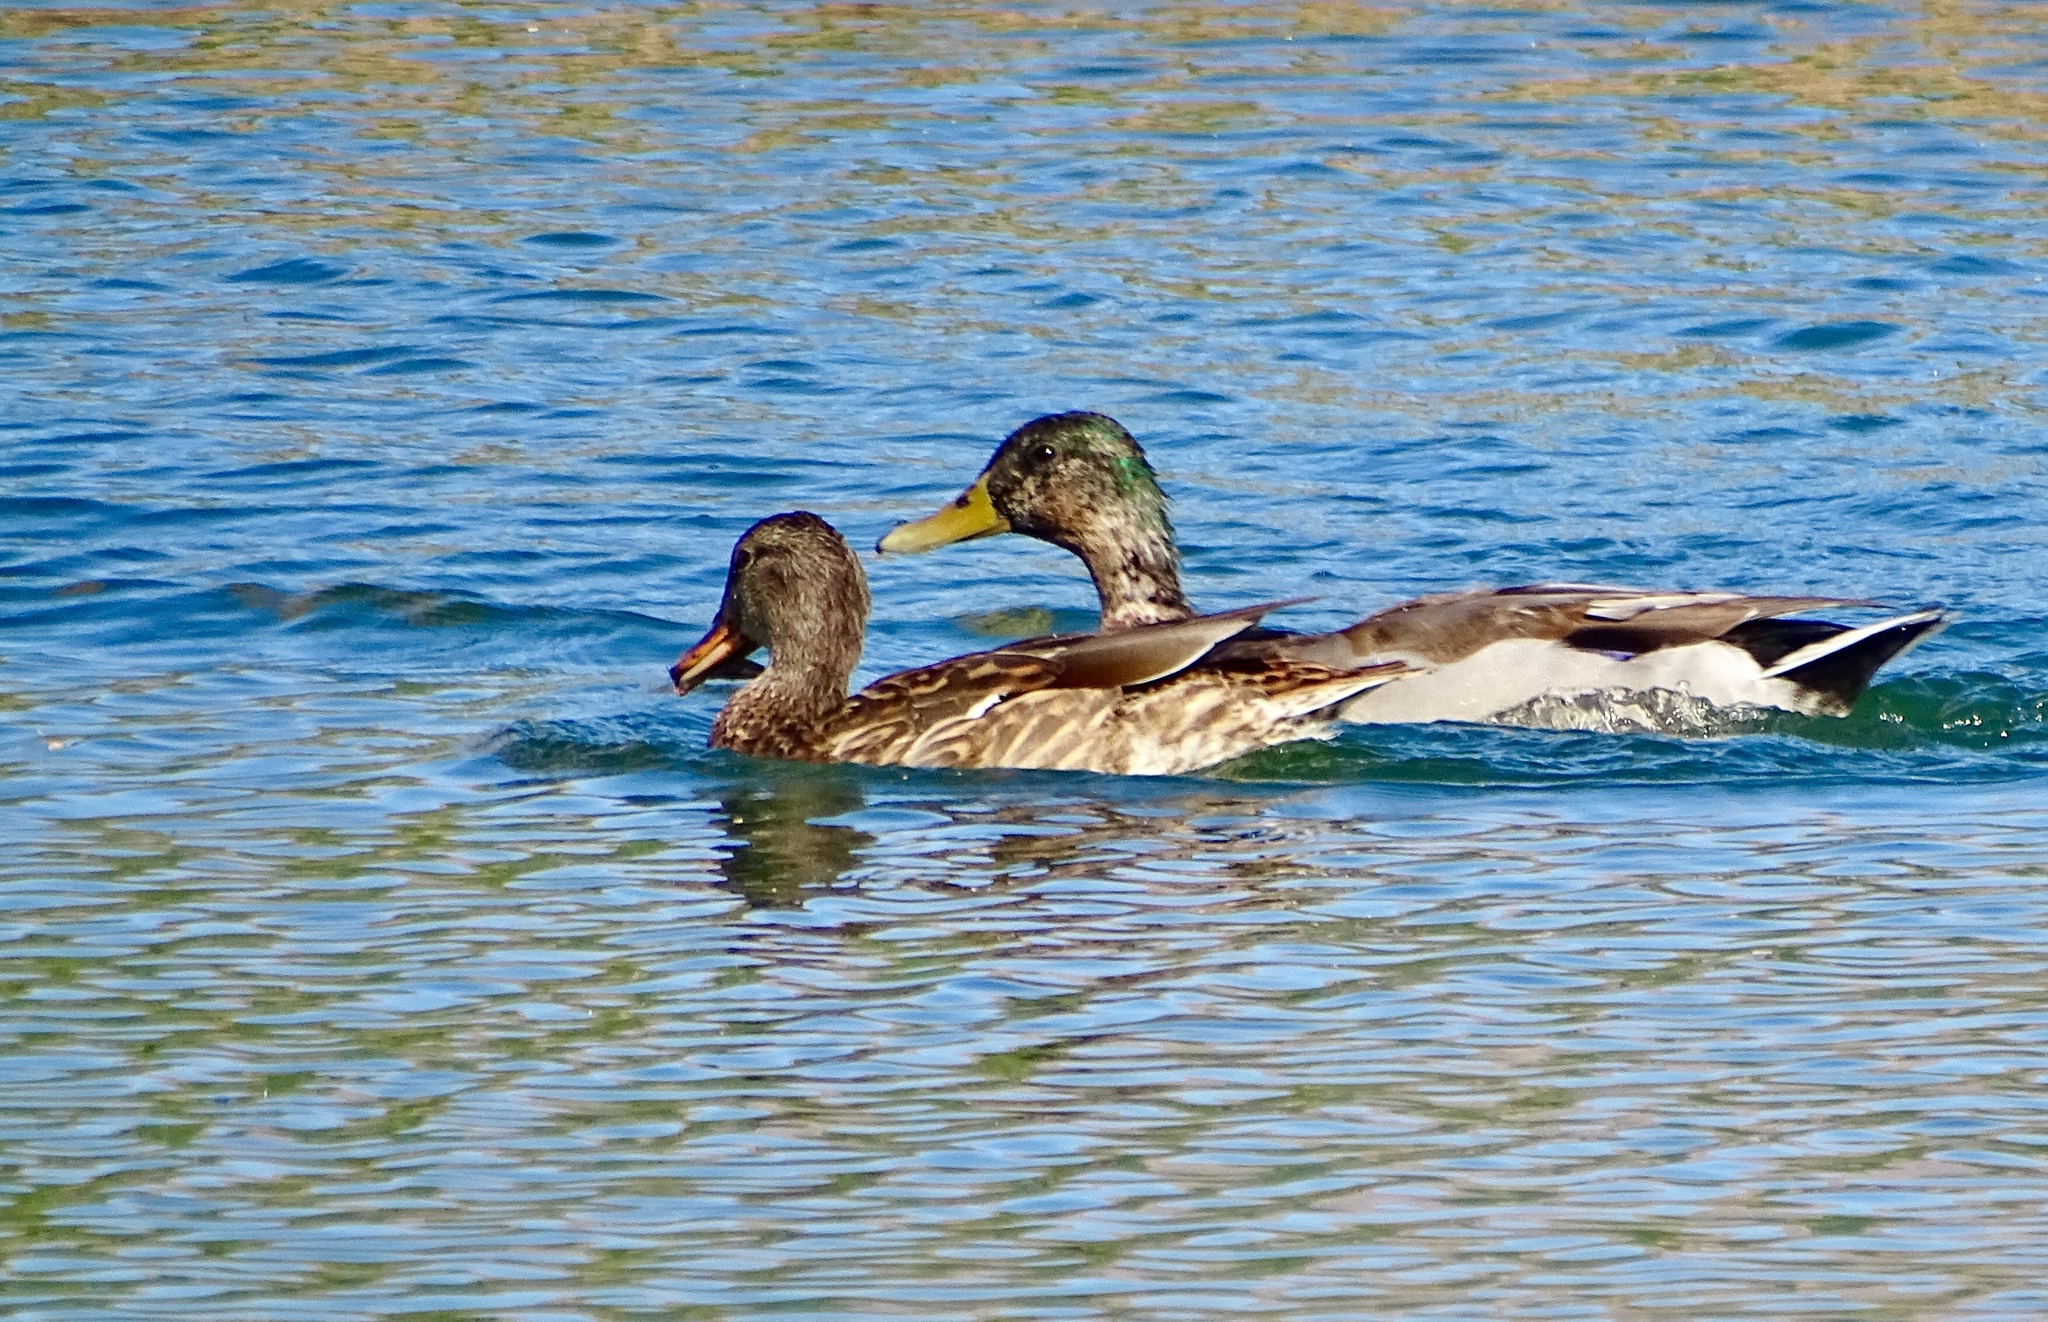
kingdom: Animalia
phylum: Chordata
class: Aves
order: Anseriformes
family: Anatidae
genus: Anas
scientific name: Anas platyrhynchos
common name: Mallard
